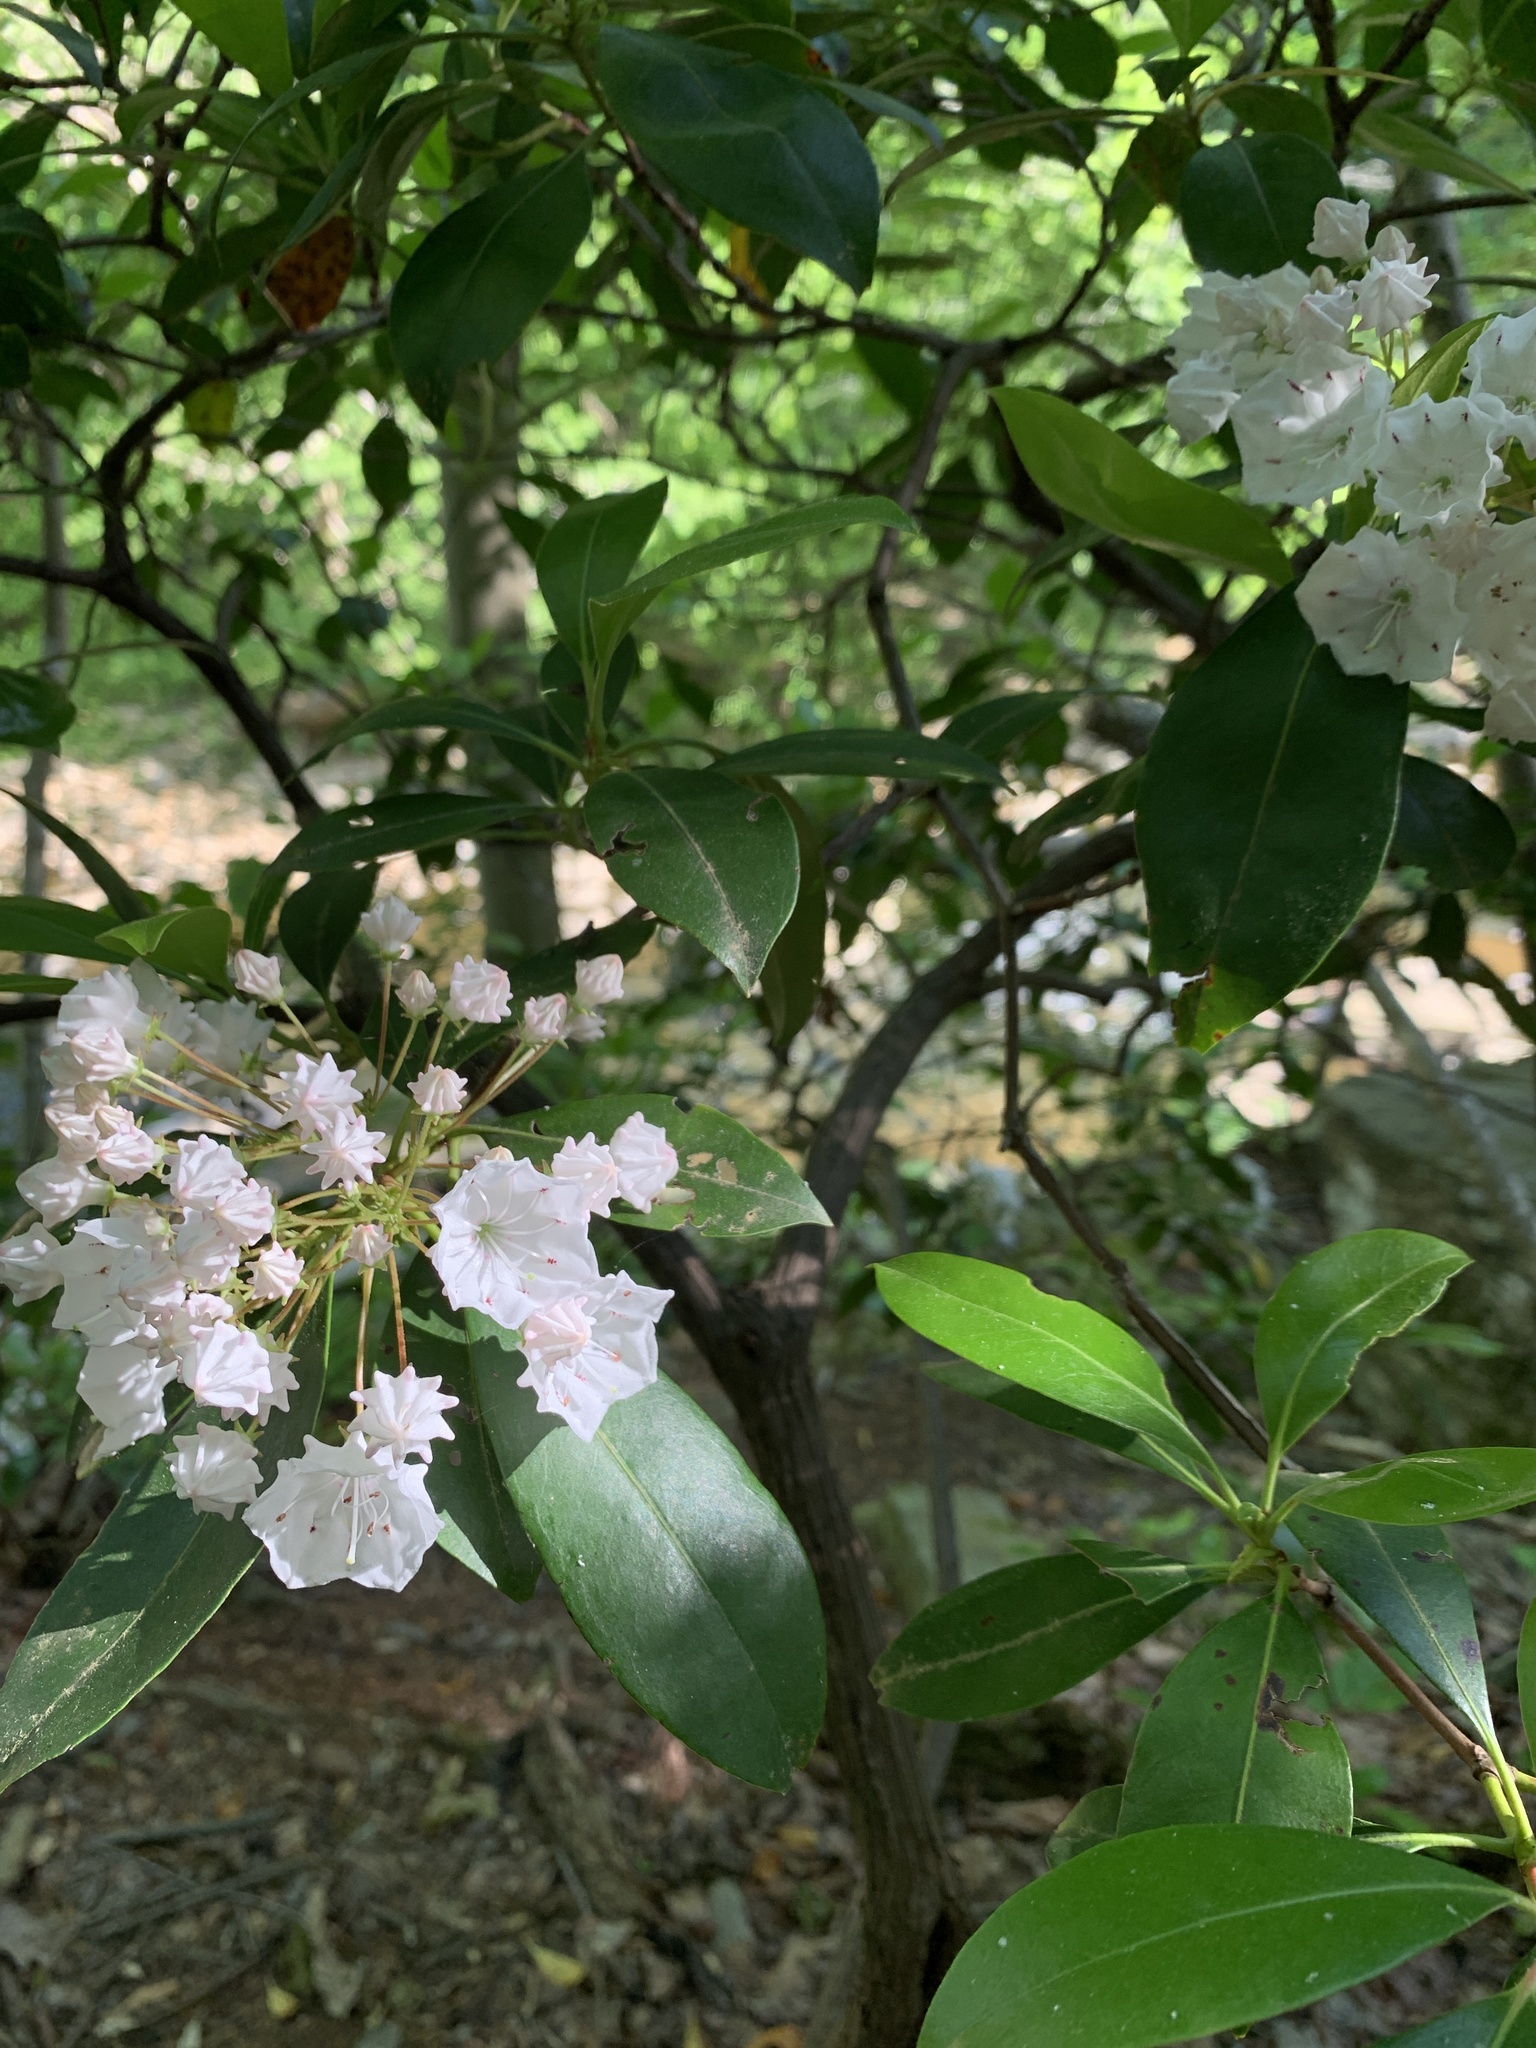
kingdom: Plantae
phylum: Tracheophyta
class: Magnoliopsida
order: Ericales
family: Ericaceae
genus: Kalmia
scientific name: Kalmia latifolia
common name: Mountain-laurel
